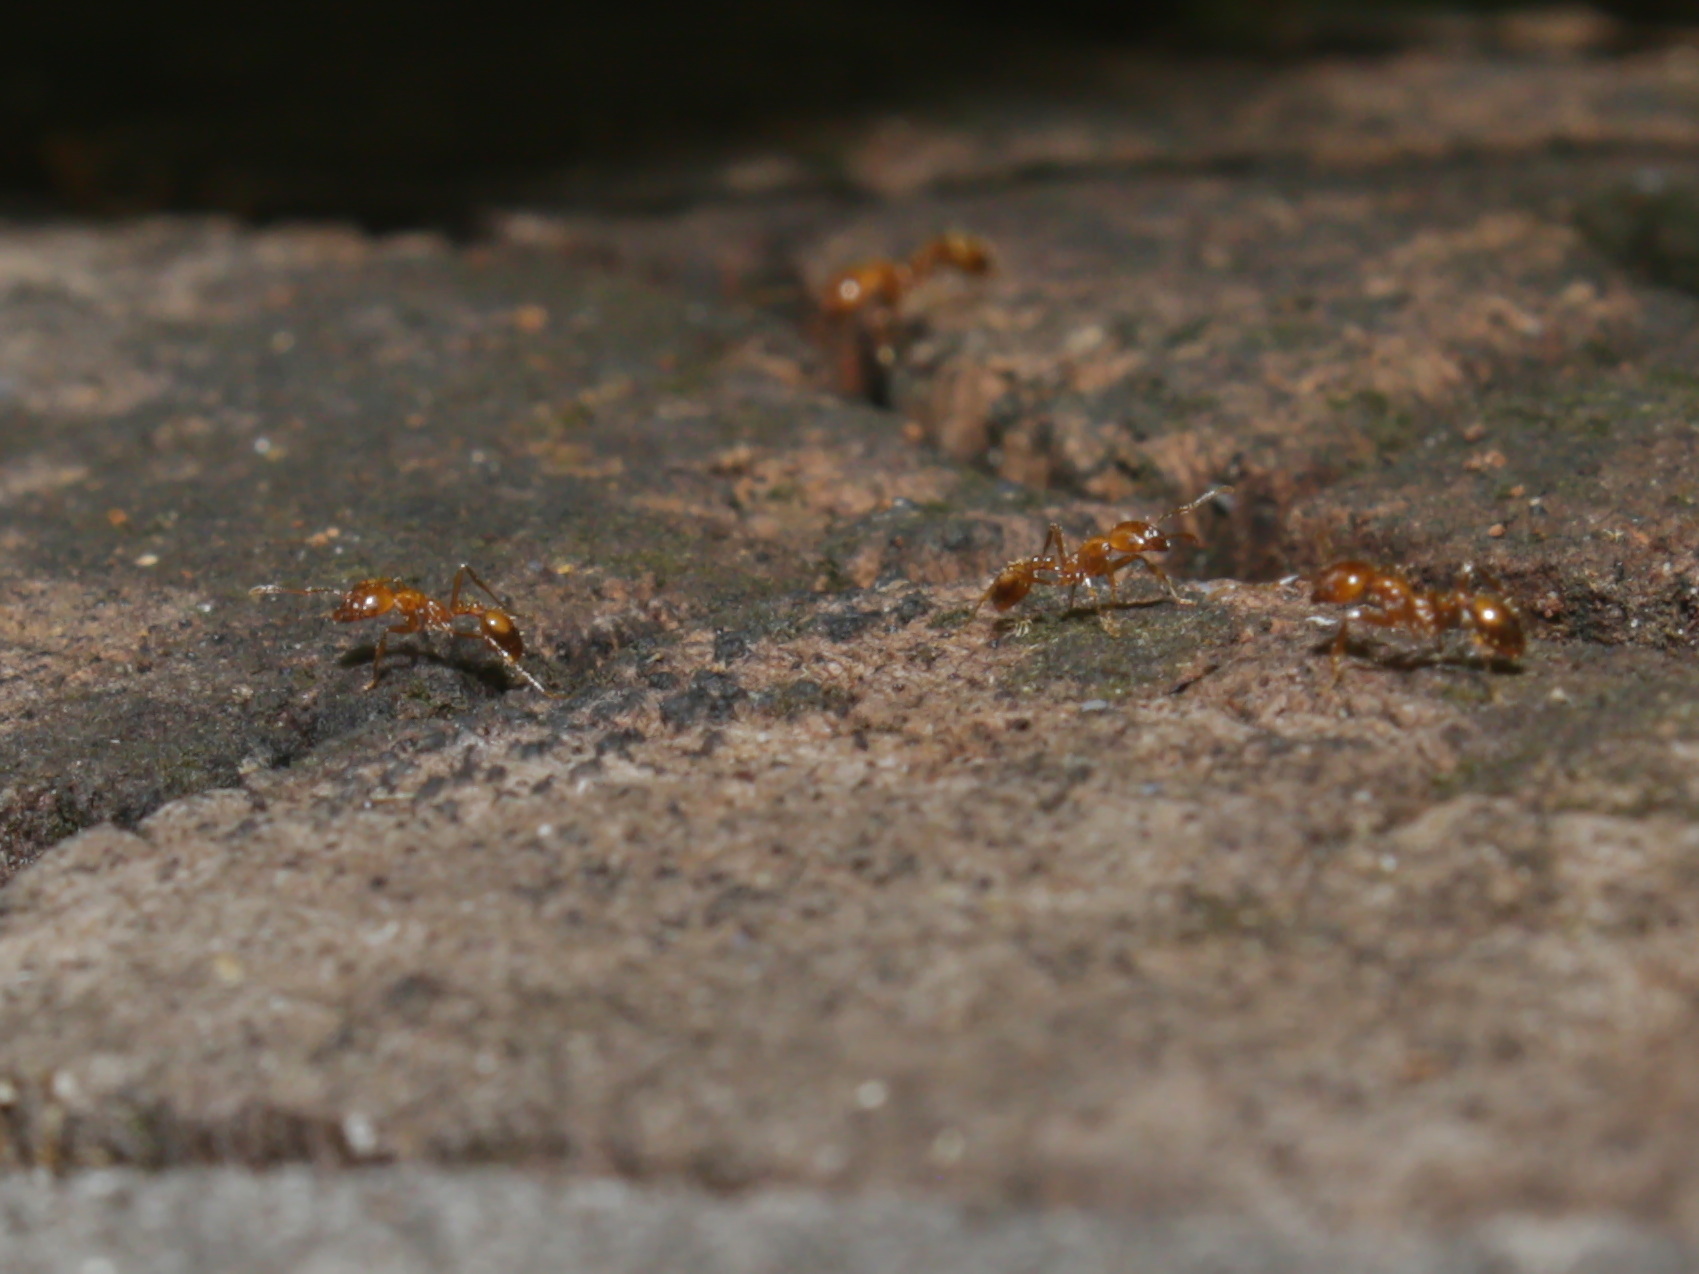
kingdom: Animalia
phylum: Arthropoda
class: Insecta
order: Hymenoptera
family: Formicidae
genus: Solenopsis
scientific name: Solenopsis geminata
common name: Tropical fire ant
